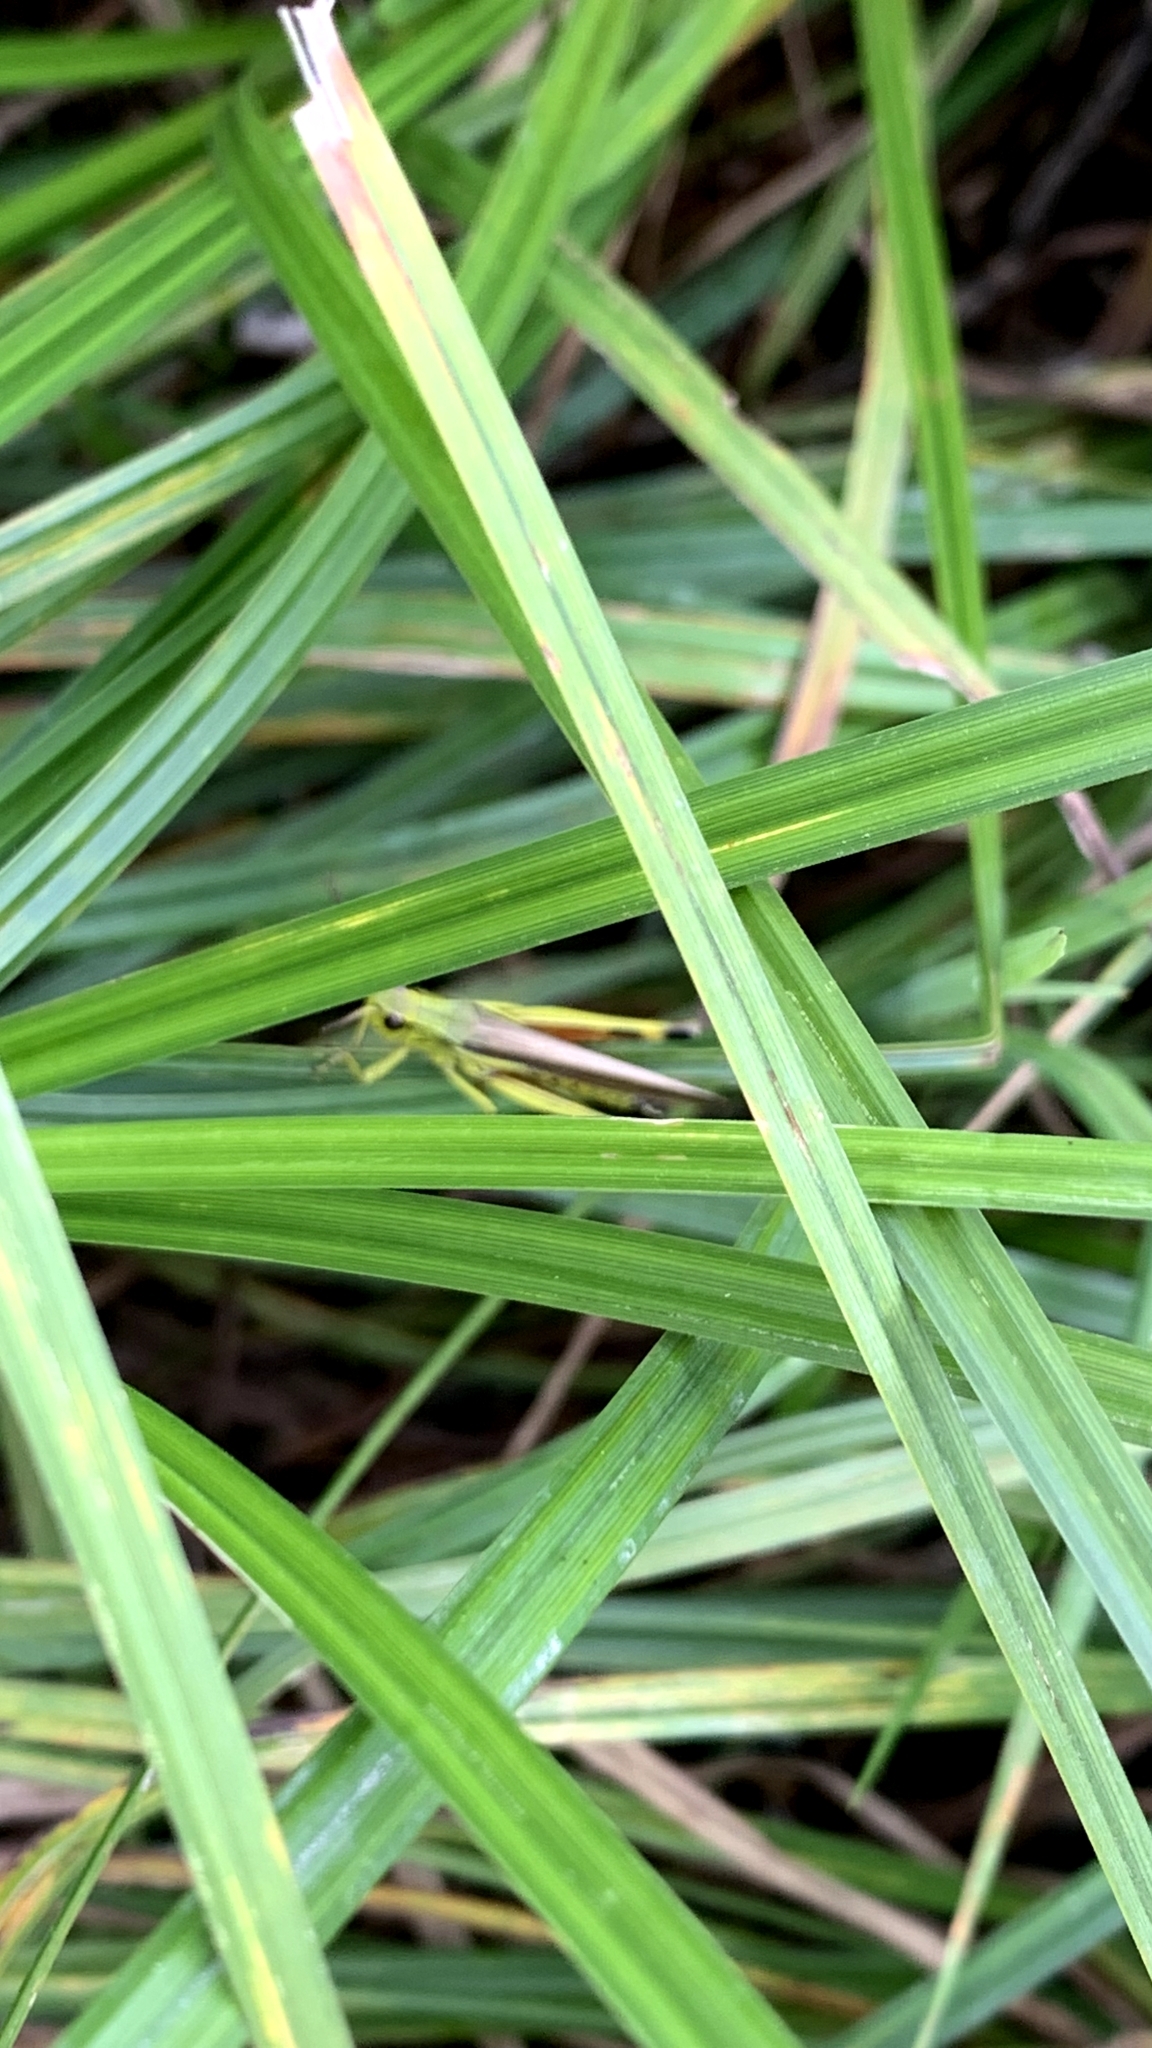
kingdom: Animalia
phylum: Arthropoda
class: Insecta
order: Orthoptera
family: Acrididae
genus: Stethophyma
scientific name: Stethophyma grossum
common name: Large marsh grasshopper
